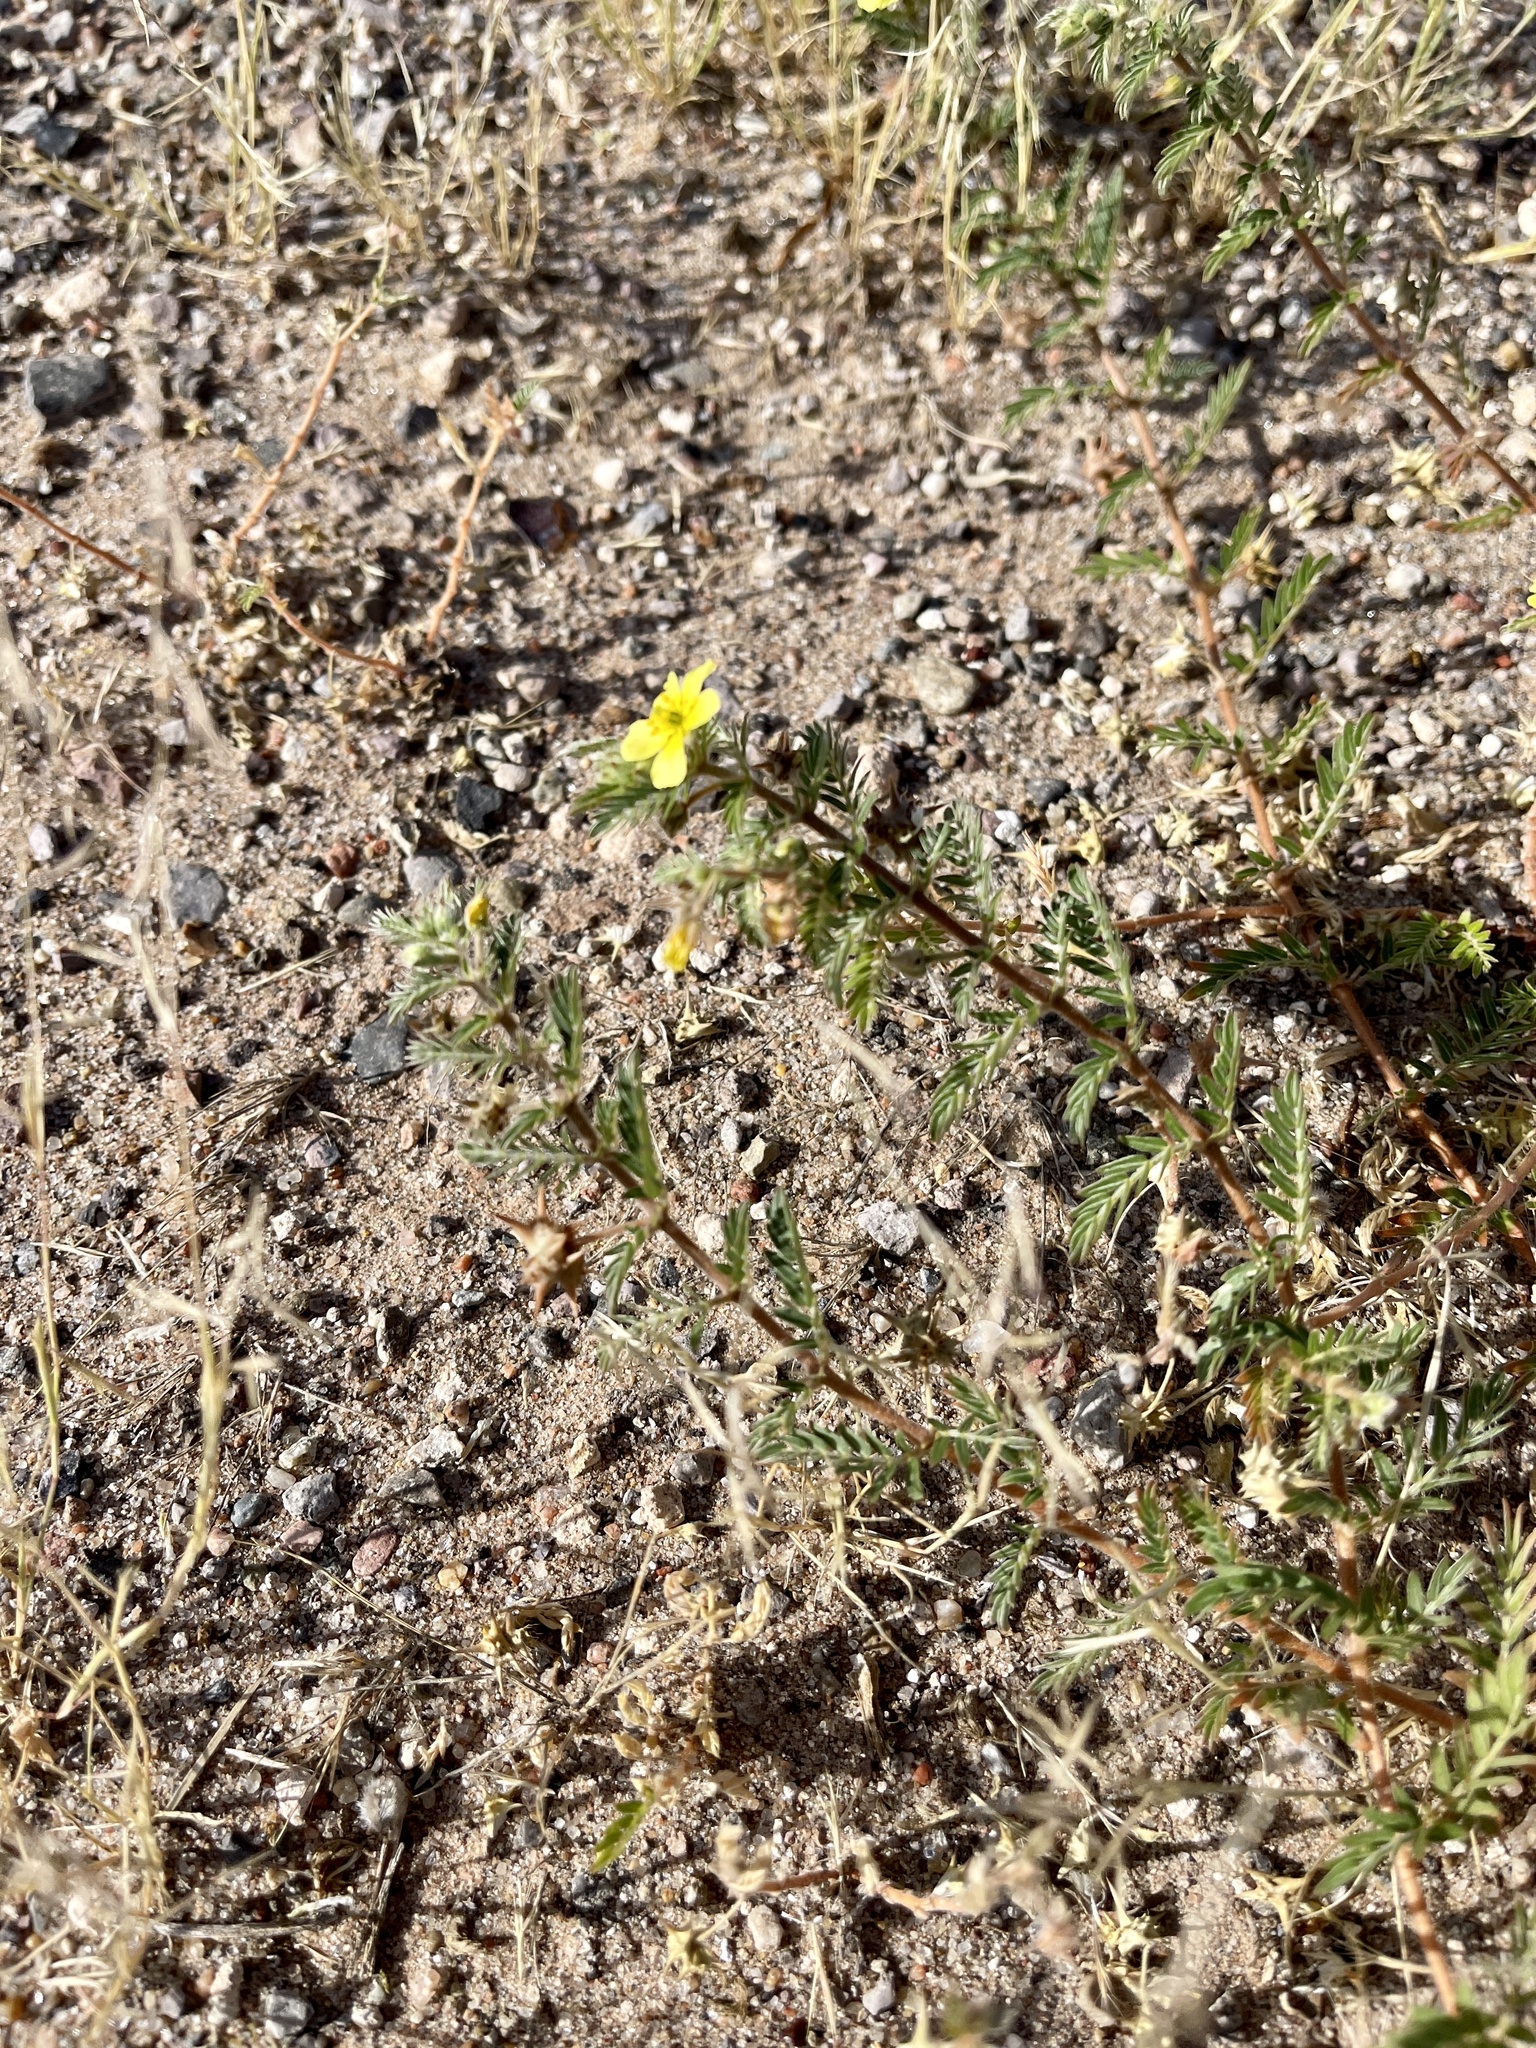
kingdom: Plantae
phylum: Tracheophyta
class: Magnoliopsida
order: Zygophyllales
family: Zygophyllaceae
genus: Tribulus
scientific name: Tribulus terrestris
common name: Puncturevine
